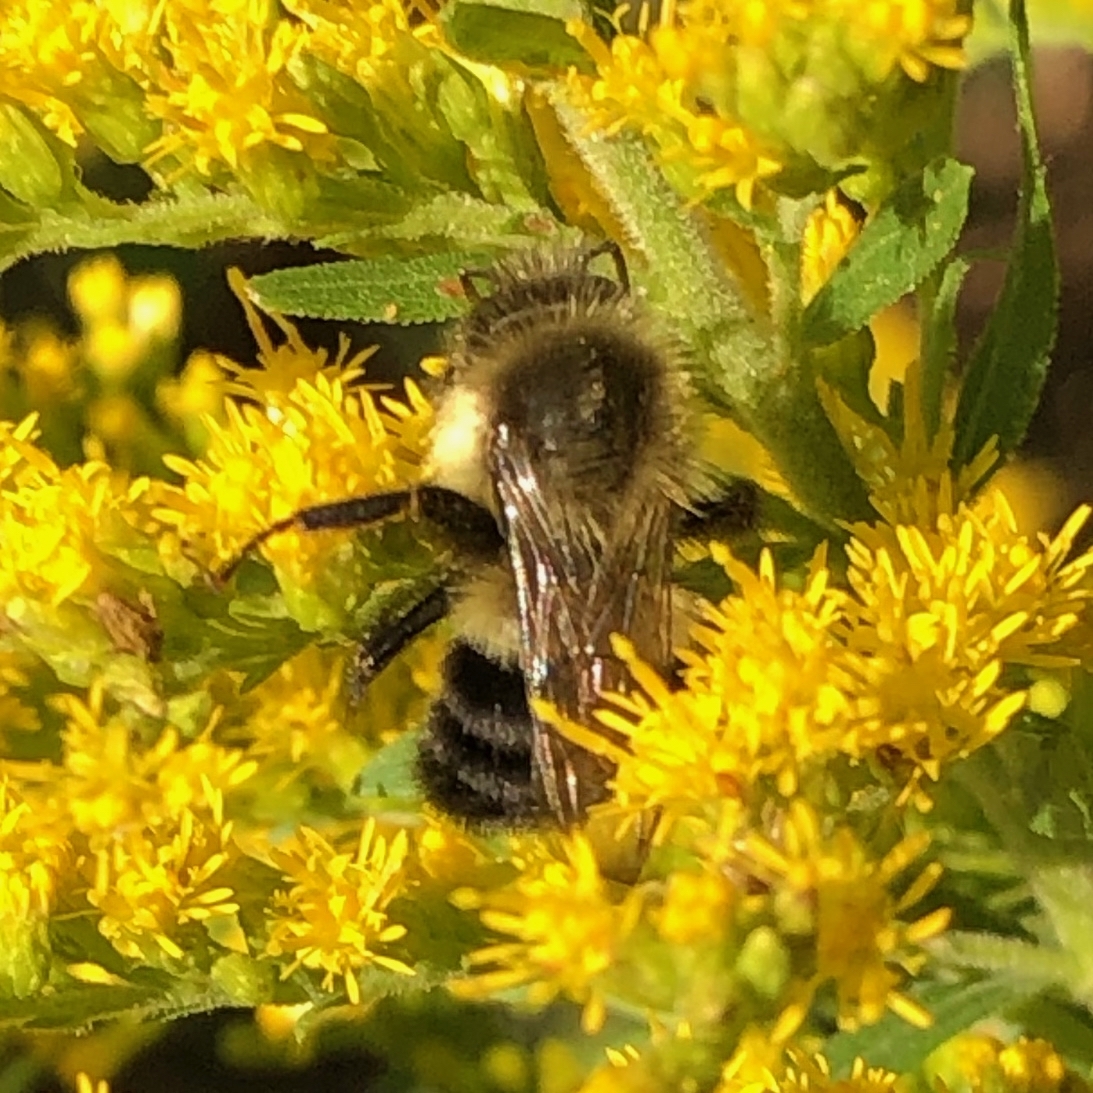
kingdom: Animalia
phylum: Arthropoda
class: Insecta
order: Hymenoptera
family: Apidae
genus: Bombus
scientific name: Bombus impatiens
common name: Common eastern bumble bee
